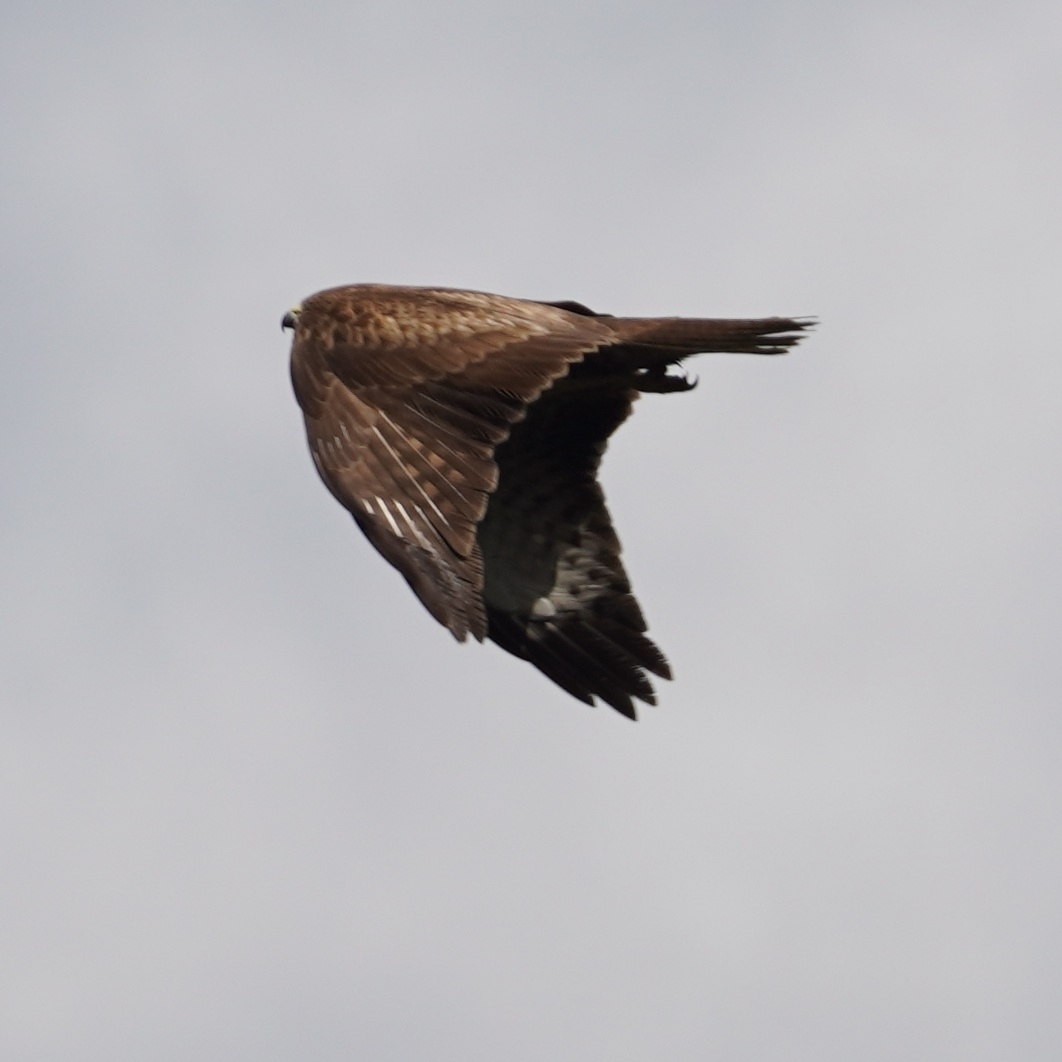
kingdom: Animalia
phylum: Chordata
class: Aves
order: Accipitriformes
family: Accipitridae
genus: Buteo
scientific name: Buteo buteo
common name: Common buzzard
